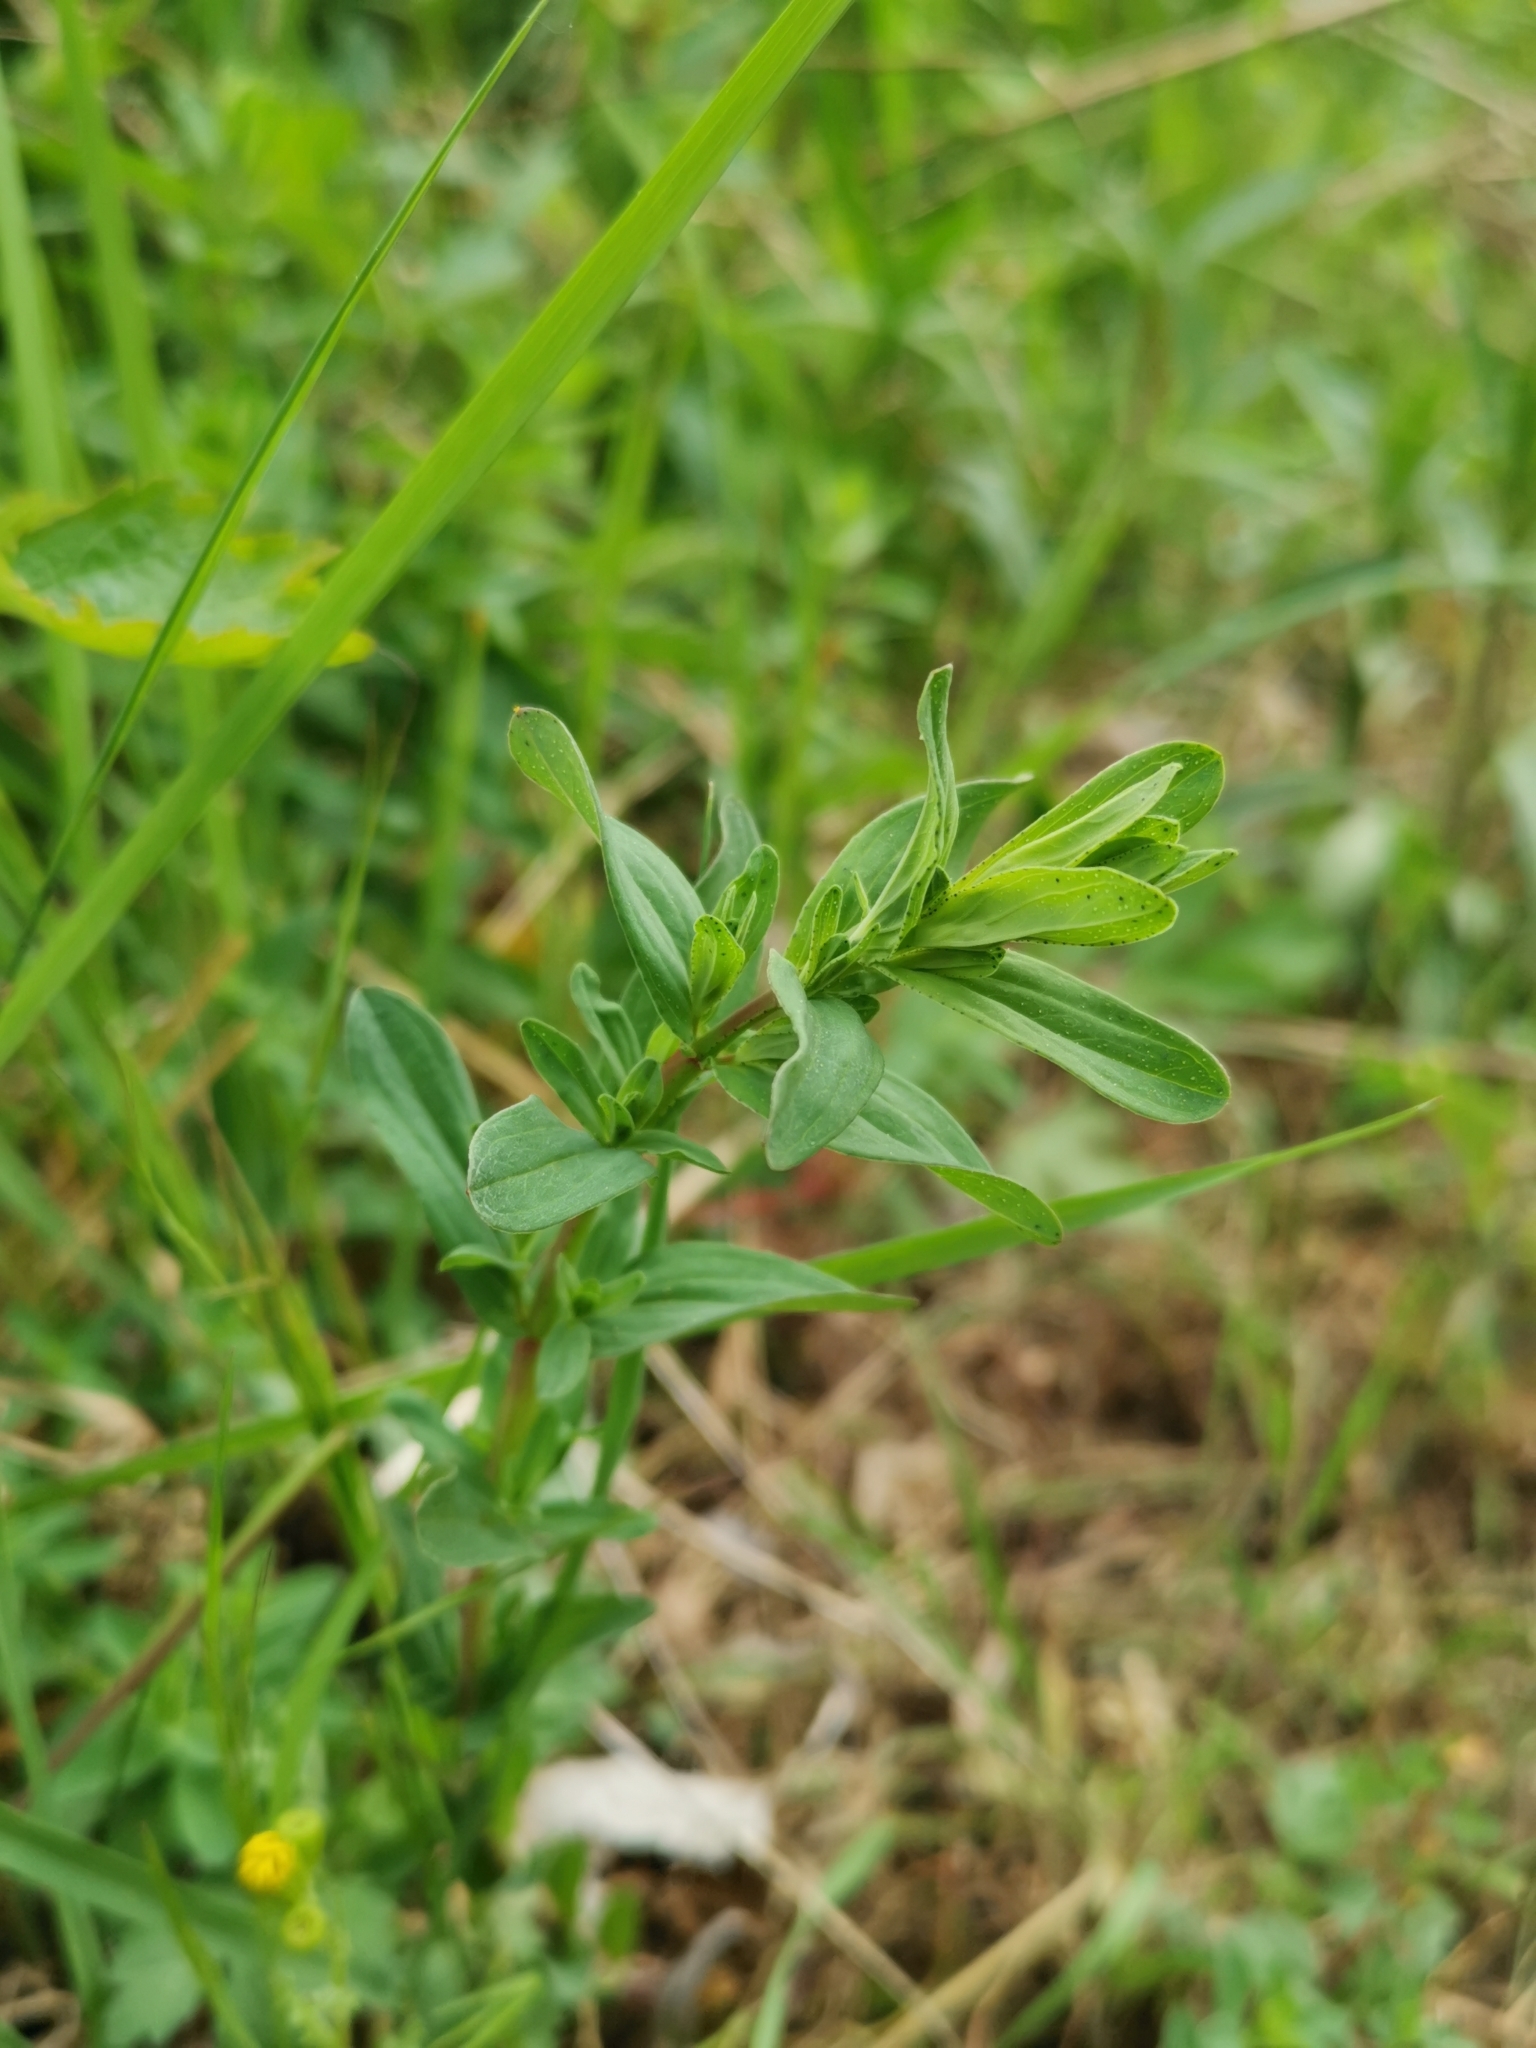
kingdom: Plantae
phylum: Tracheophyta
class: Magnoliopsida
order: Malpighiales
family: Hypericaceae
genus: Hypericum
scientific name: Hypericum perforatum
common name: Common st. johnswort
